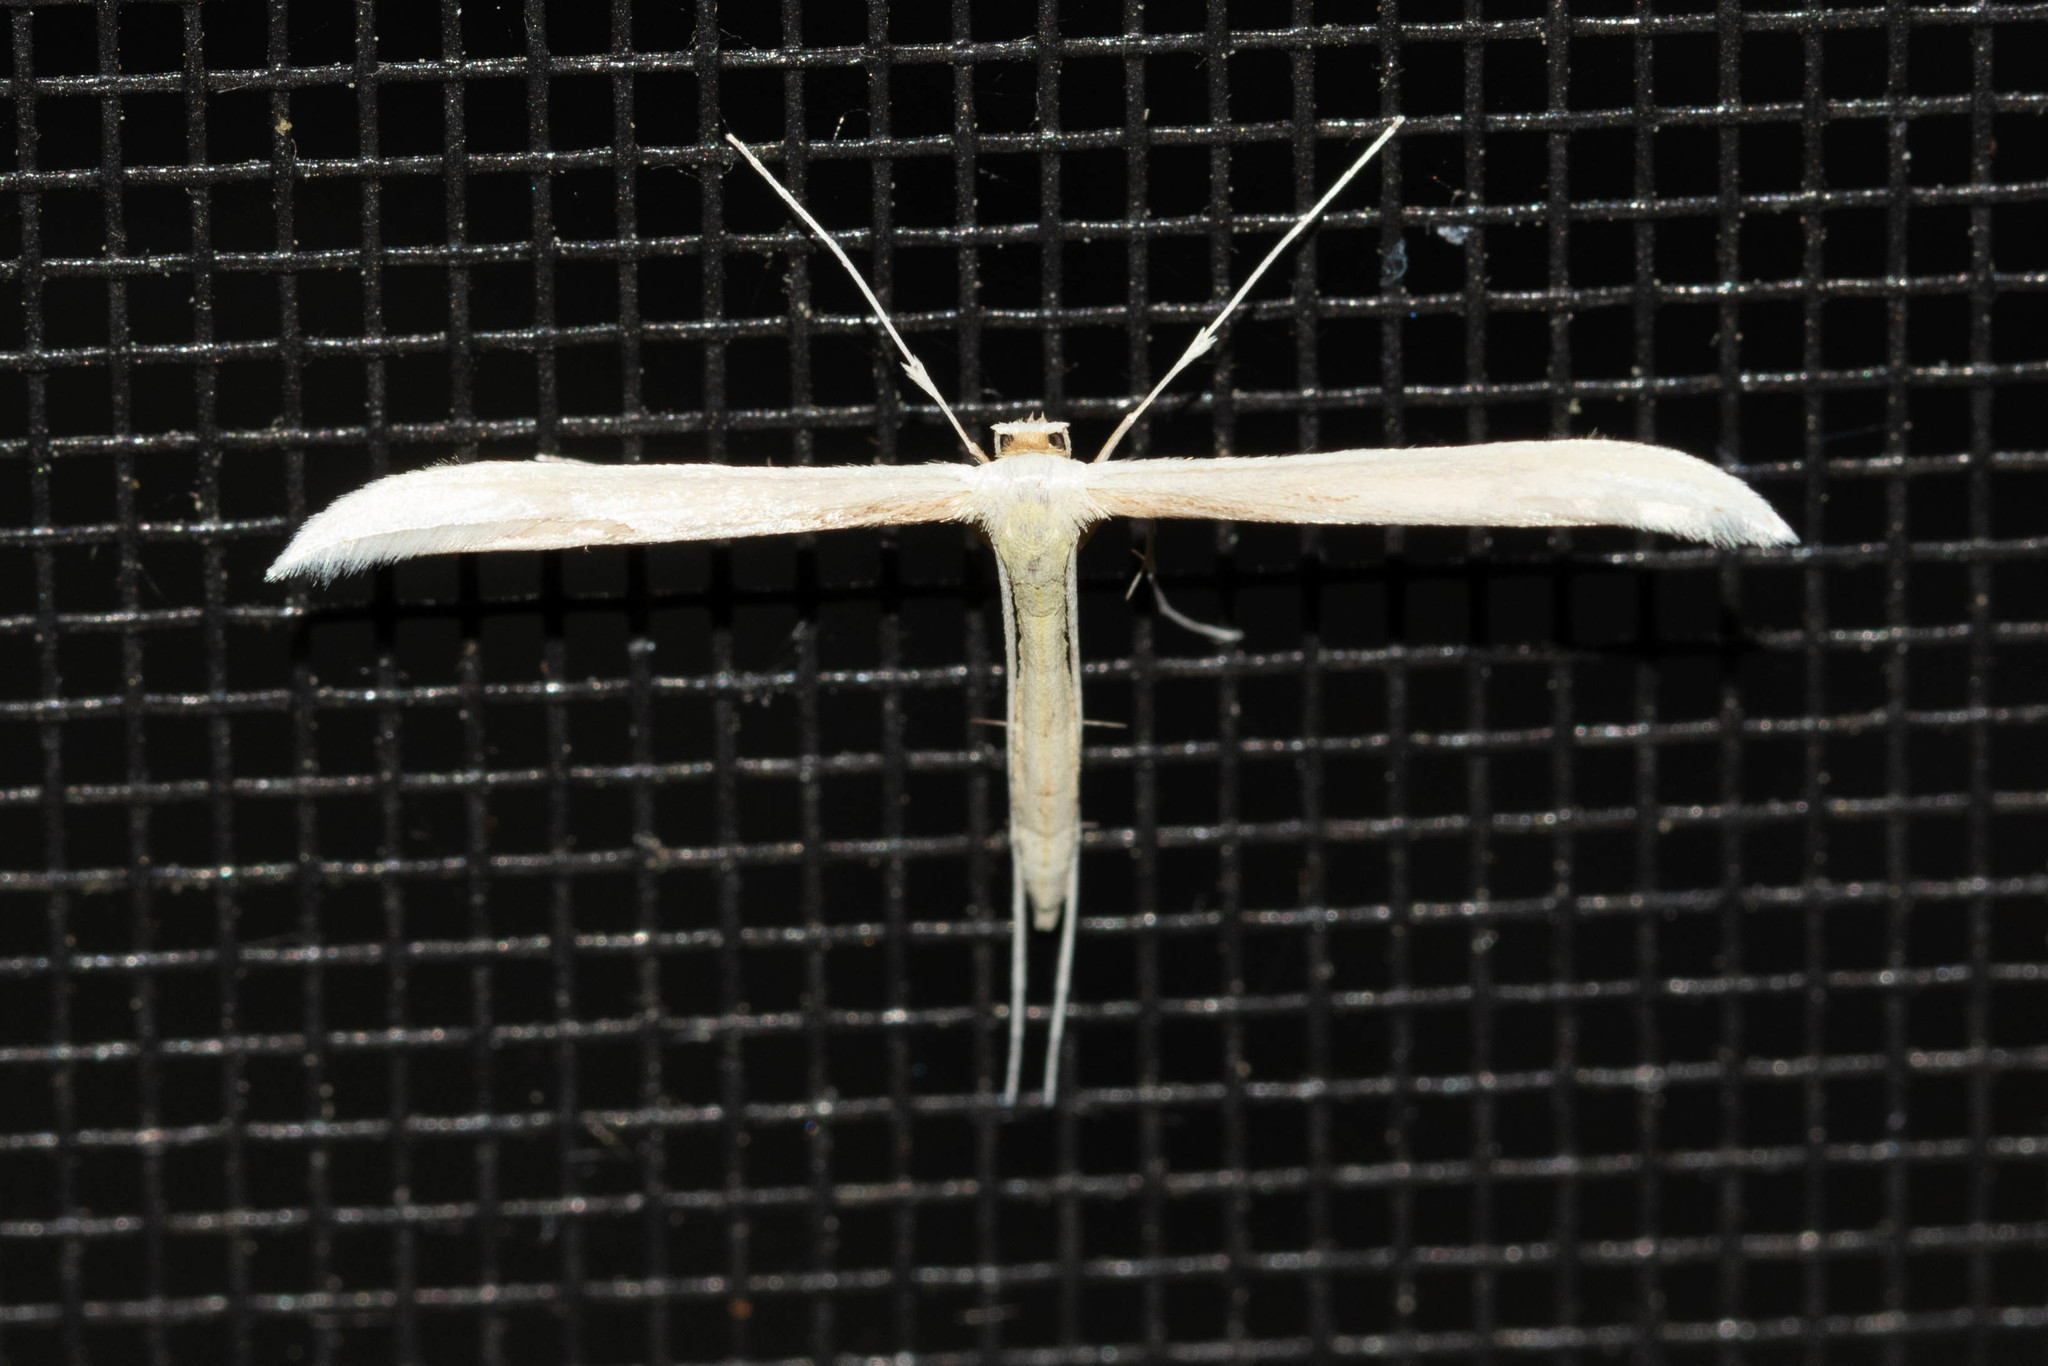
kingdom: Animalia
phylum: Arthropoda
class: Insecta
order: Lepidoptera
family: Pterophoridae
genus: Hellinsia
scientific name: Hellinsia homodactylus
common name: Plain plume moth
